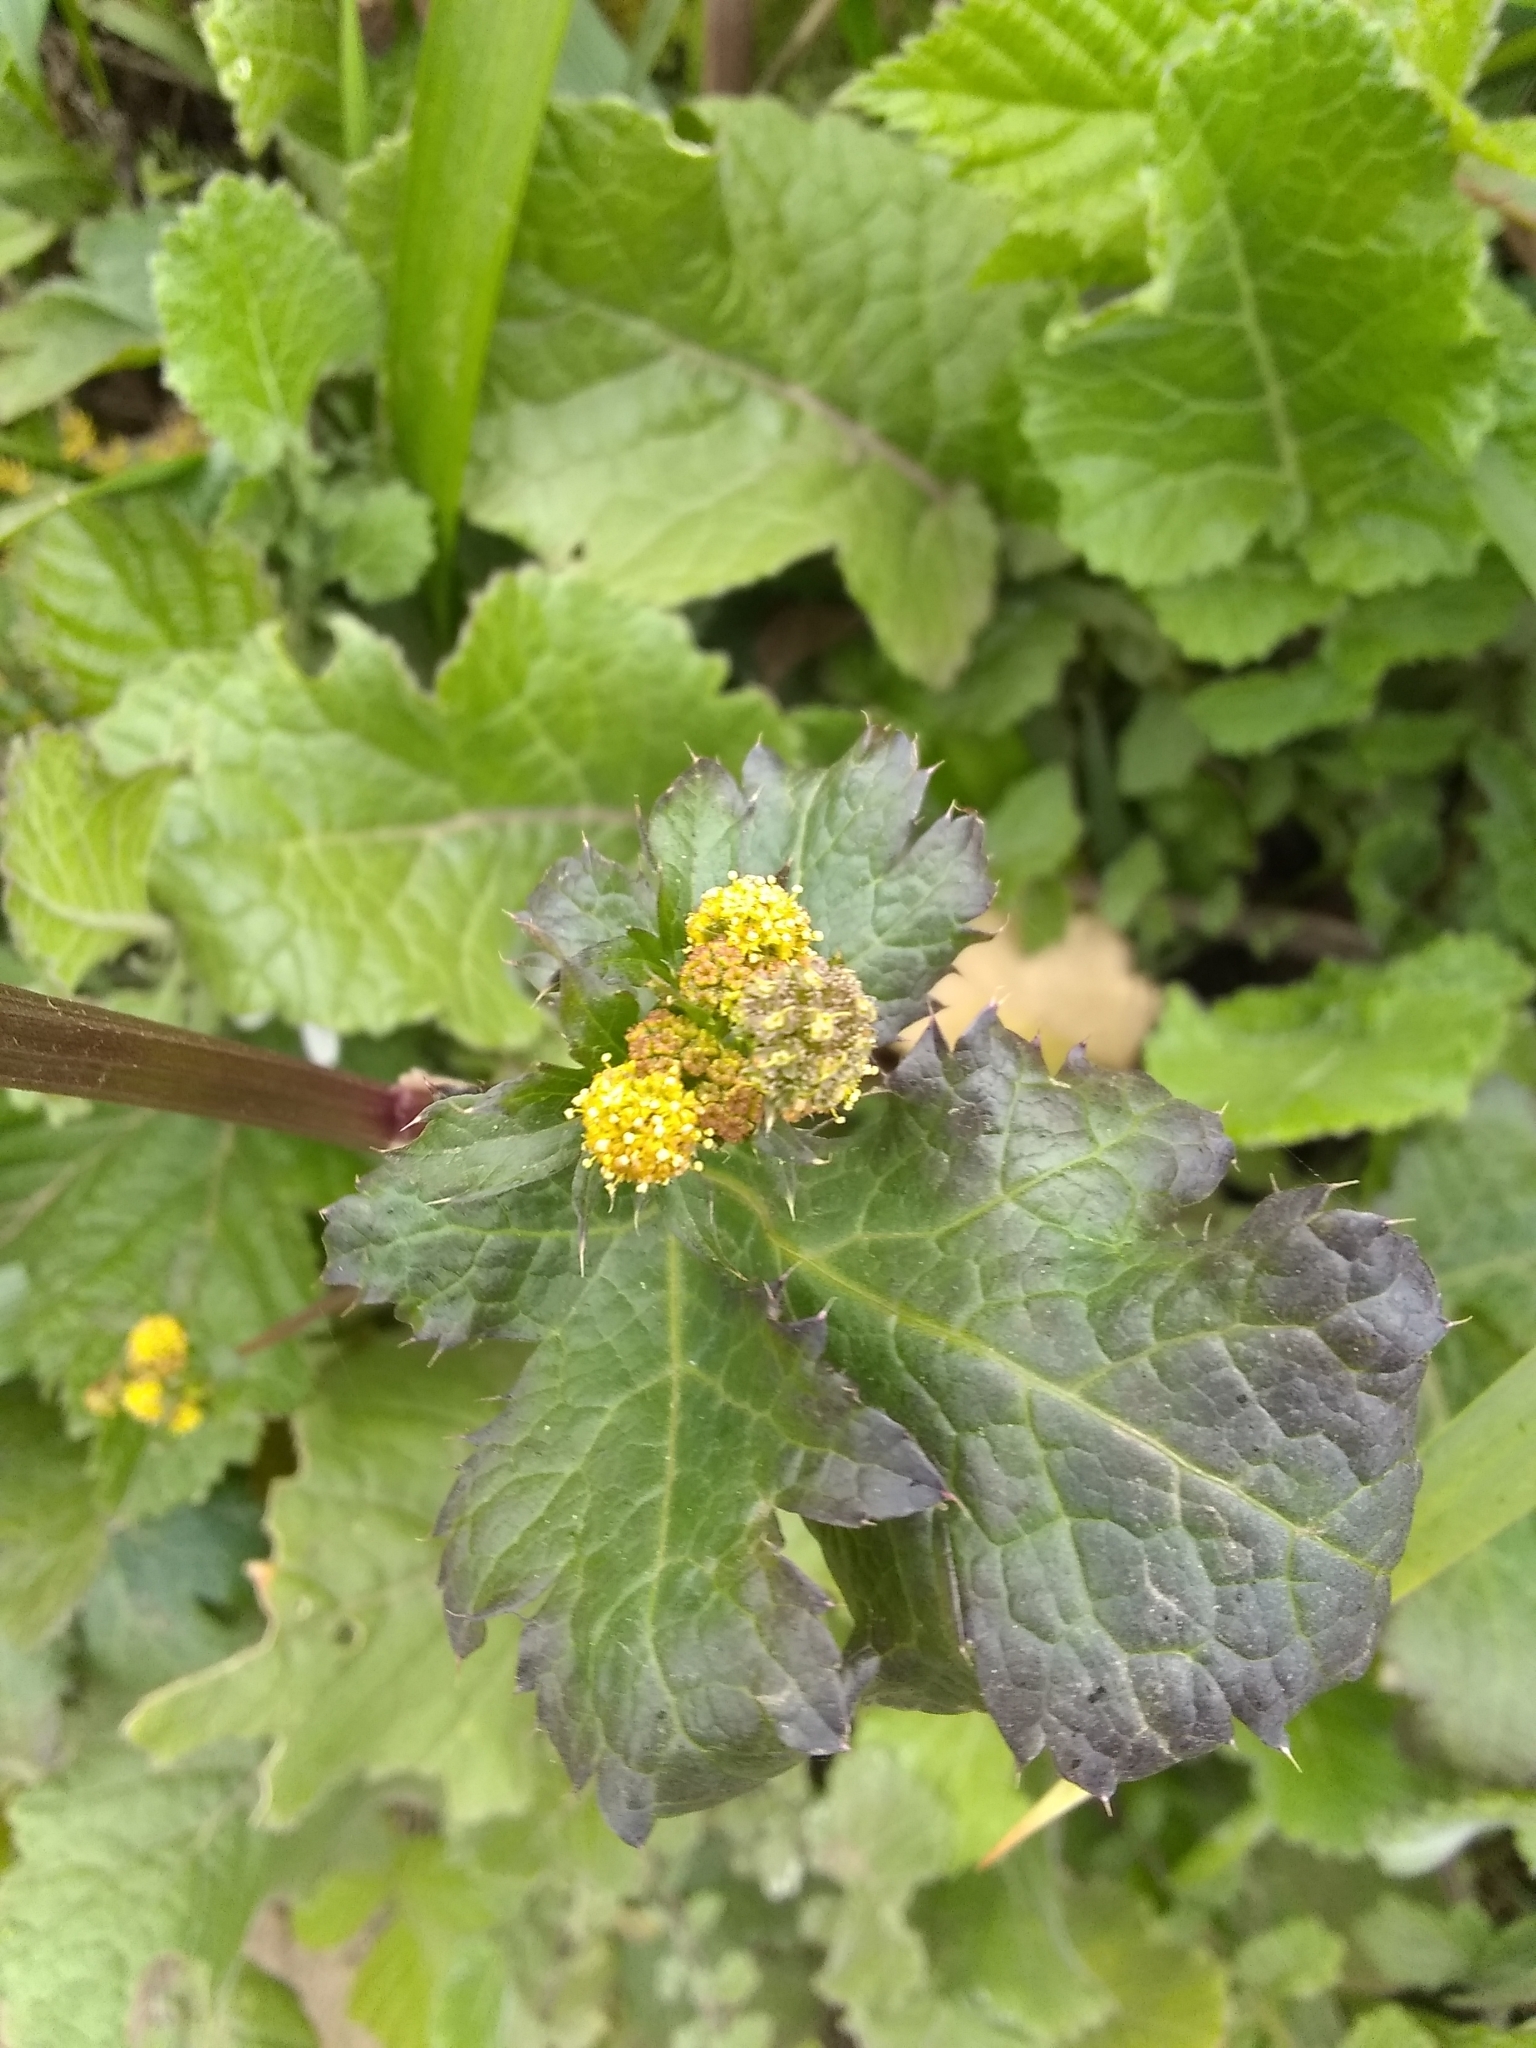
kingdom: Plantae
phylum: Tracheophyta
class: Magnoliopsida
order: Apiales
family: Apiaceae
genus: Sanicula
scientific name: Sanicula crassicaulis
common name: Western snakeroot
